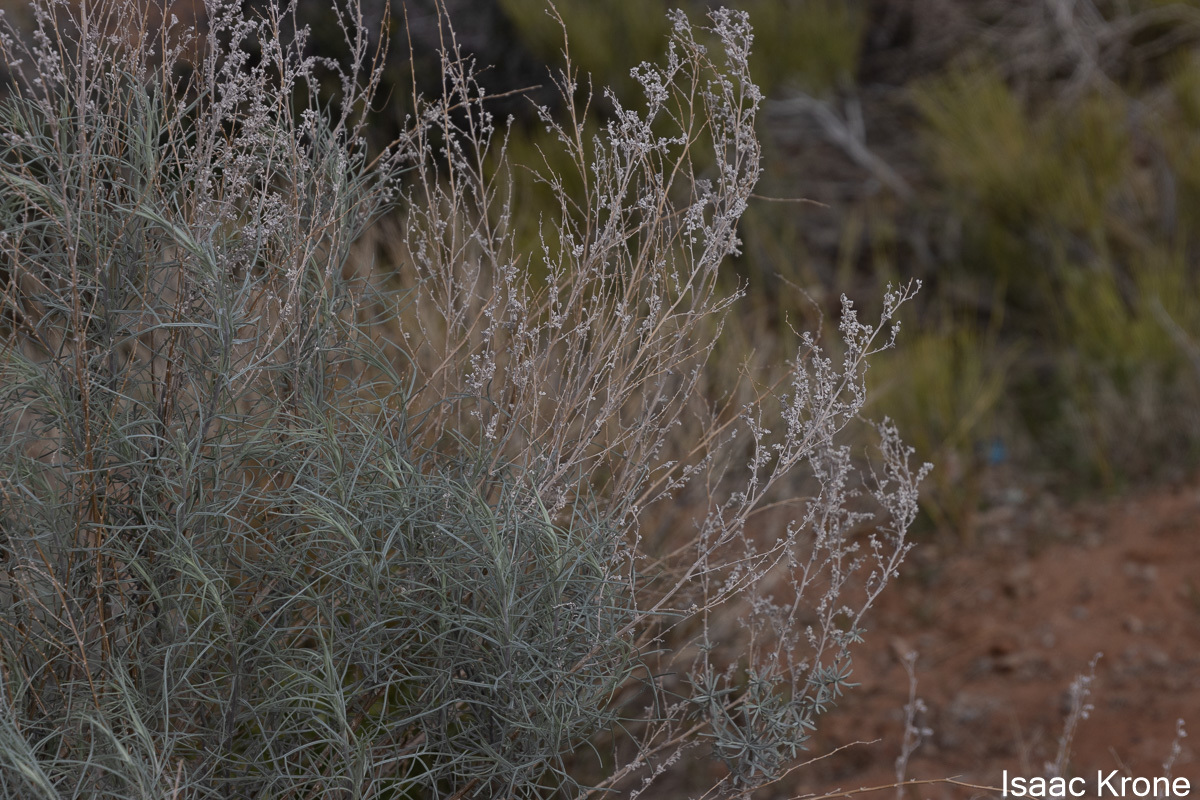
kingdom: Plantae
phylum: Tracheophyta
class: Magnoliopsida
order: Asterales
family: Asteraceae
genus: Artemisia
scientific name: Artemisia filifolia
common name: Sand-sage
